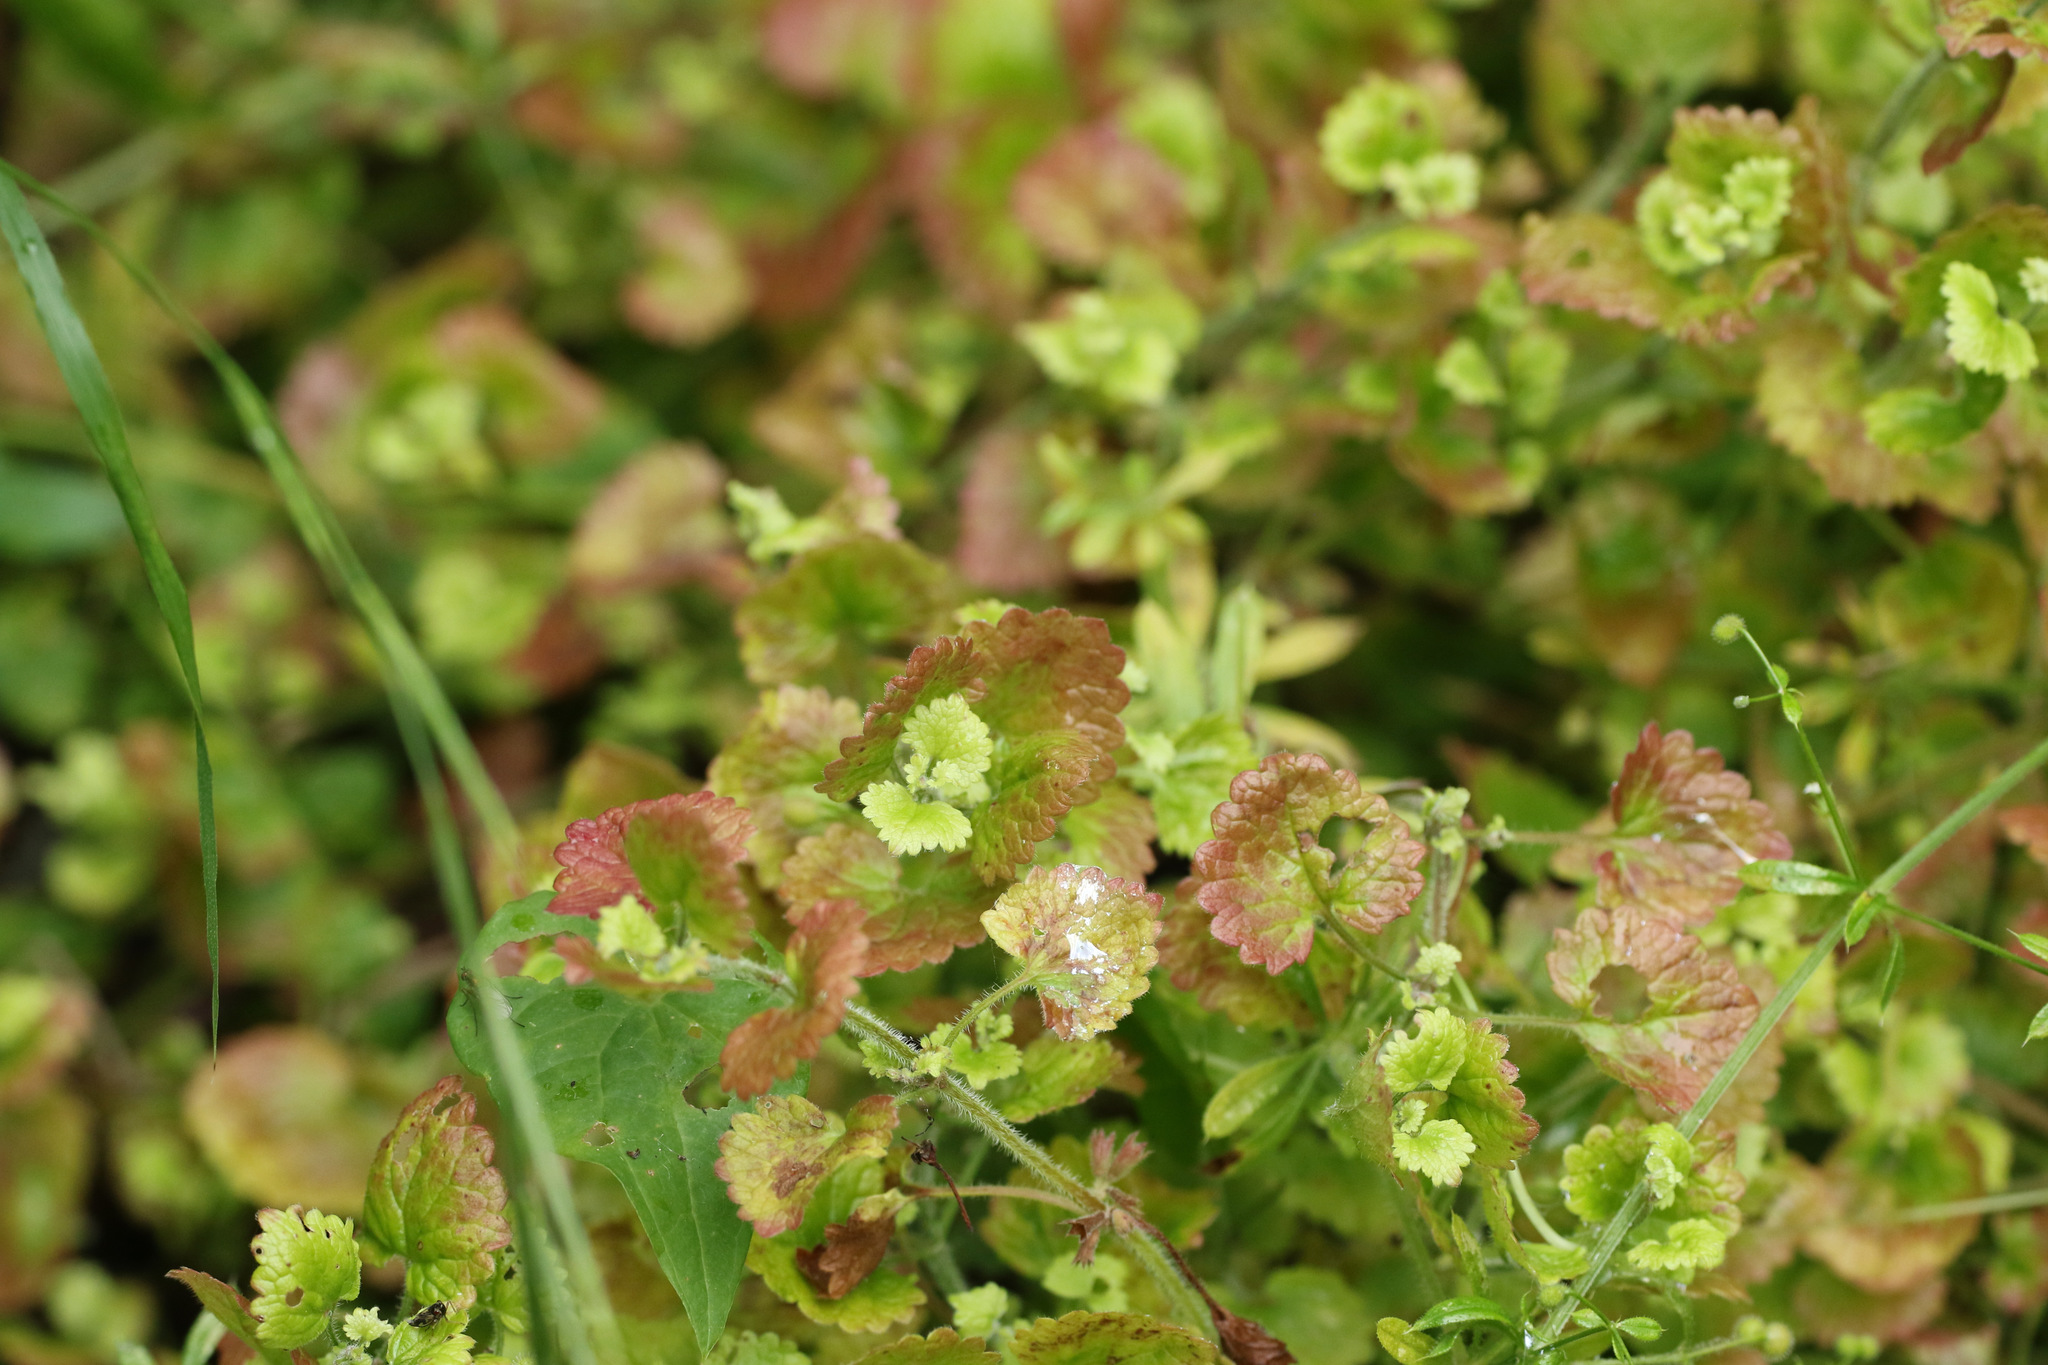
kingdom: Plantae
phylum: Tracheophyta
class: Magnoliopsida
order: Lamiales
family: Lamiaceae
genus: Glechoma
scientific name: Glechoma hederacea
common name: Ground ivy
